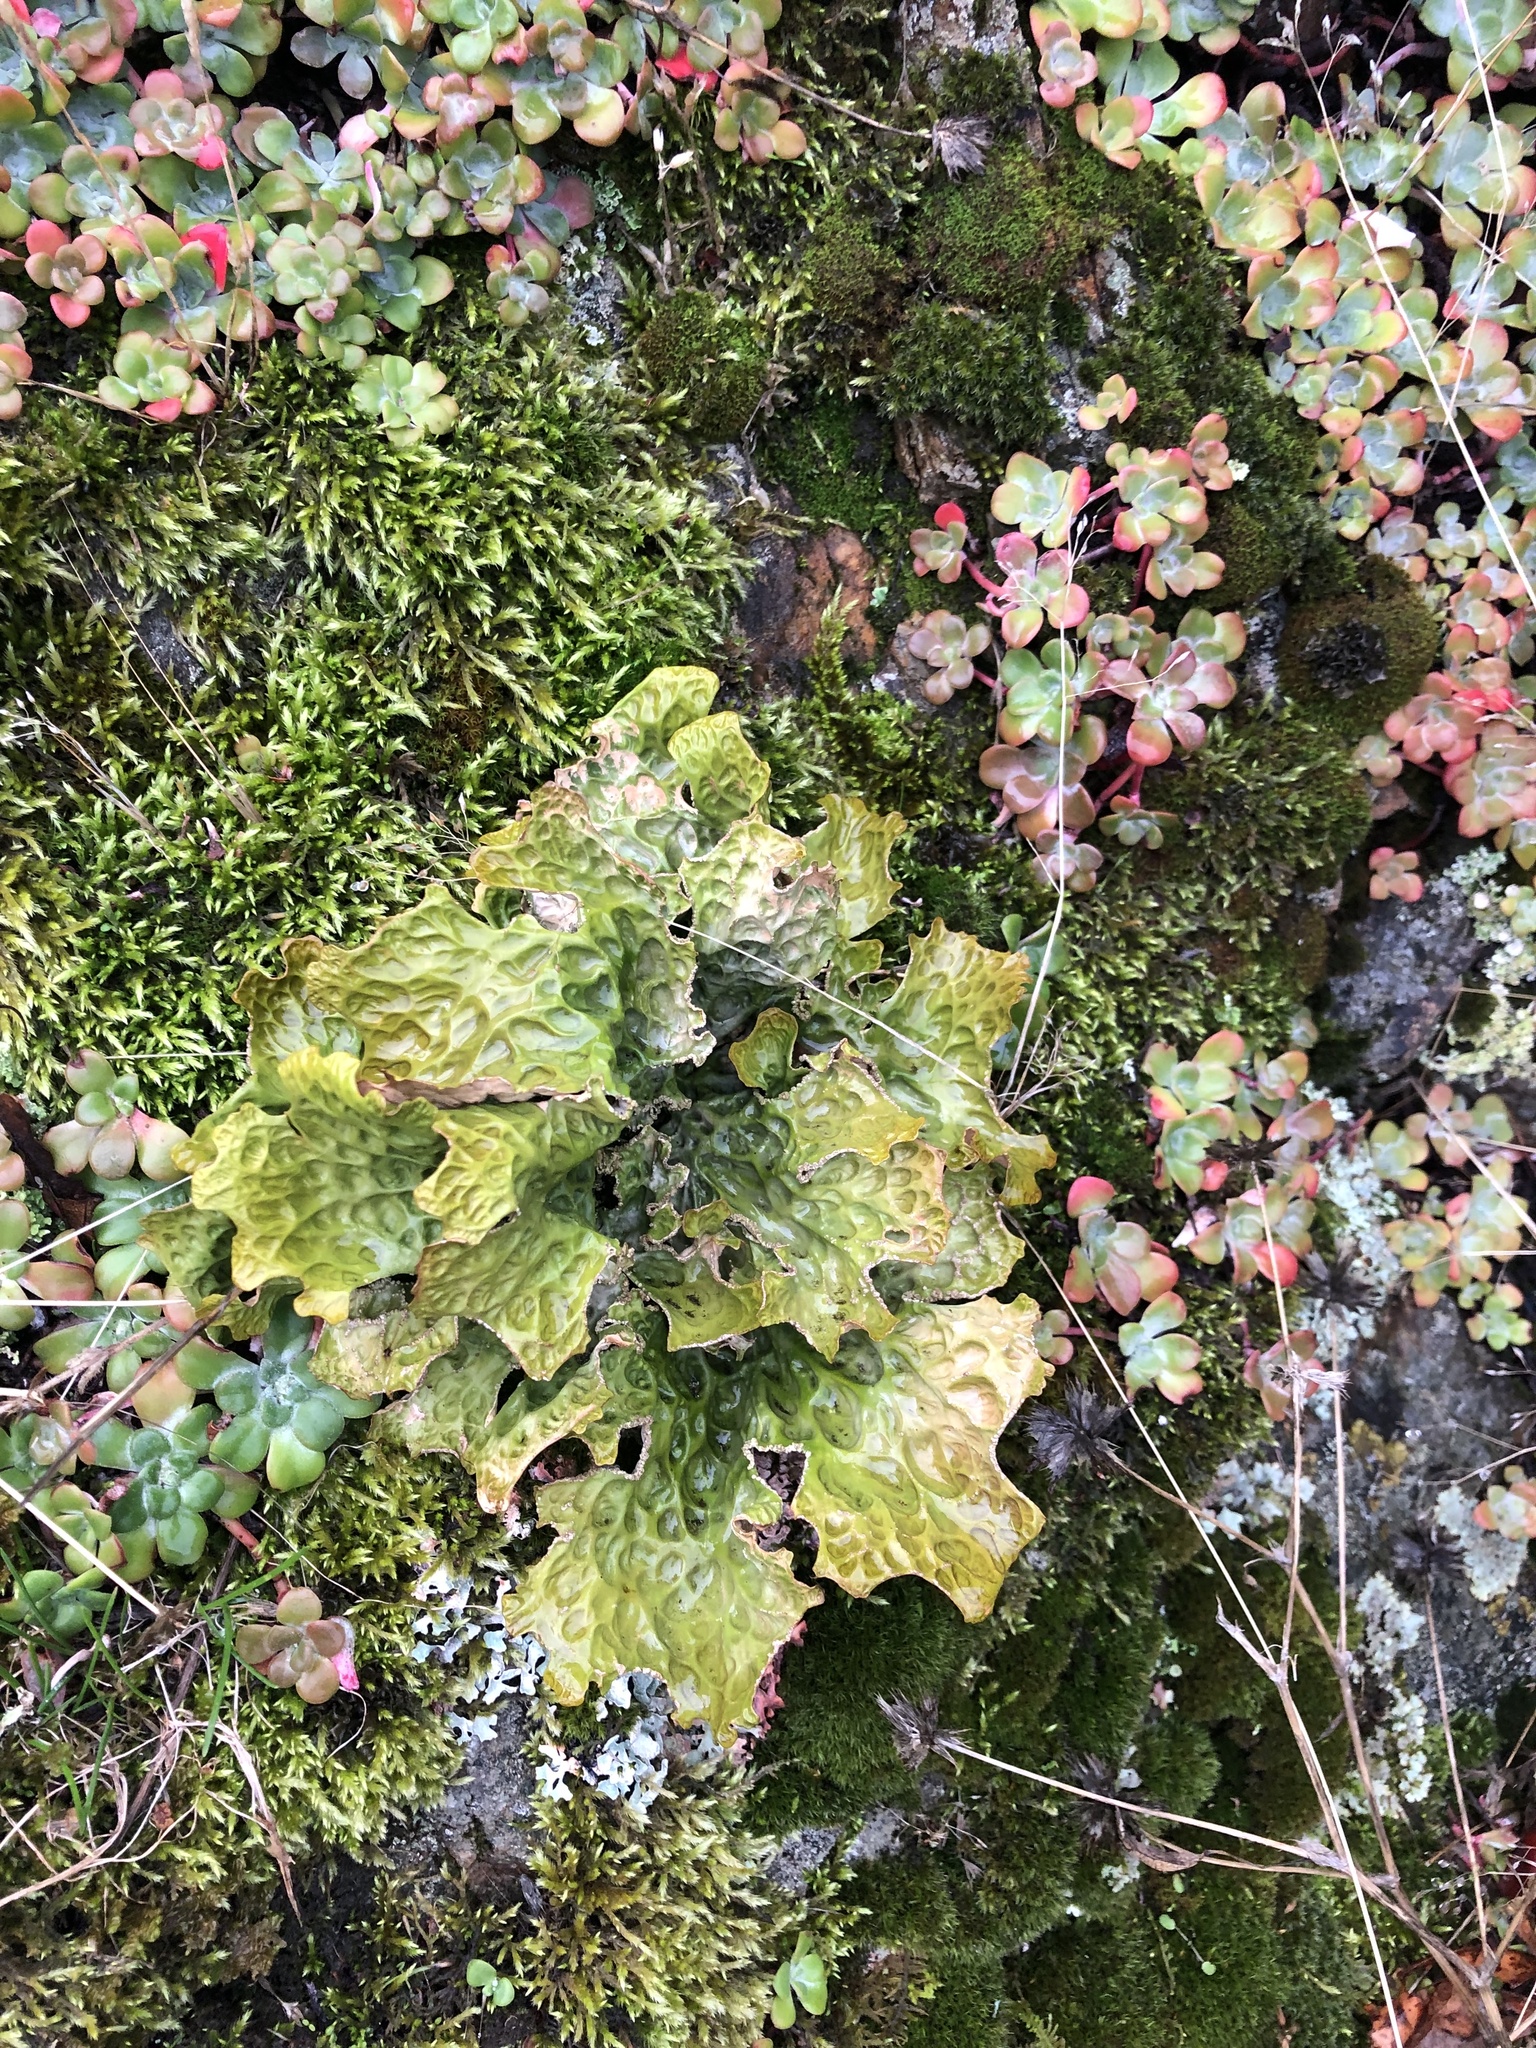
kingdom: Fungi
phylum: Ascomycota
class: Lecanoromycetes
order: Peltigerales
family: Lobariaceae
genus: Lobaria
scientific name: Lobaria pulmonaria
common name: Lungwort
